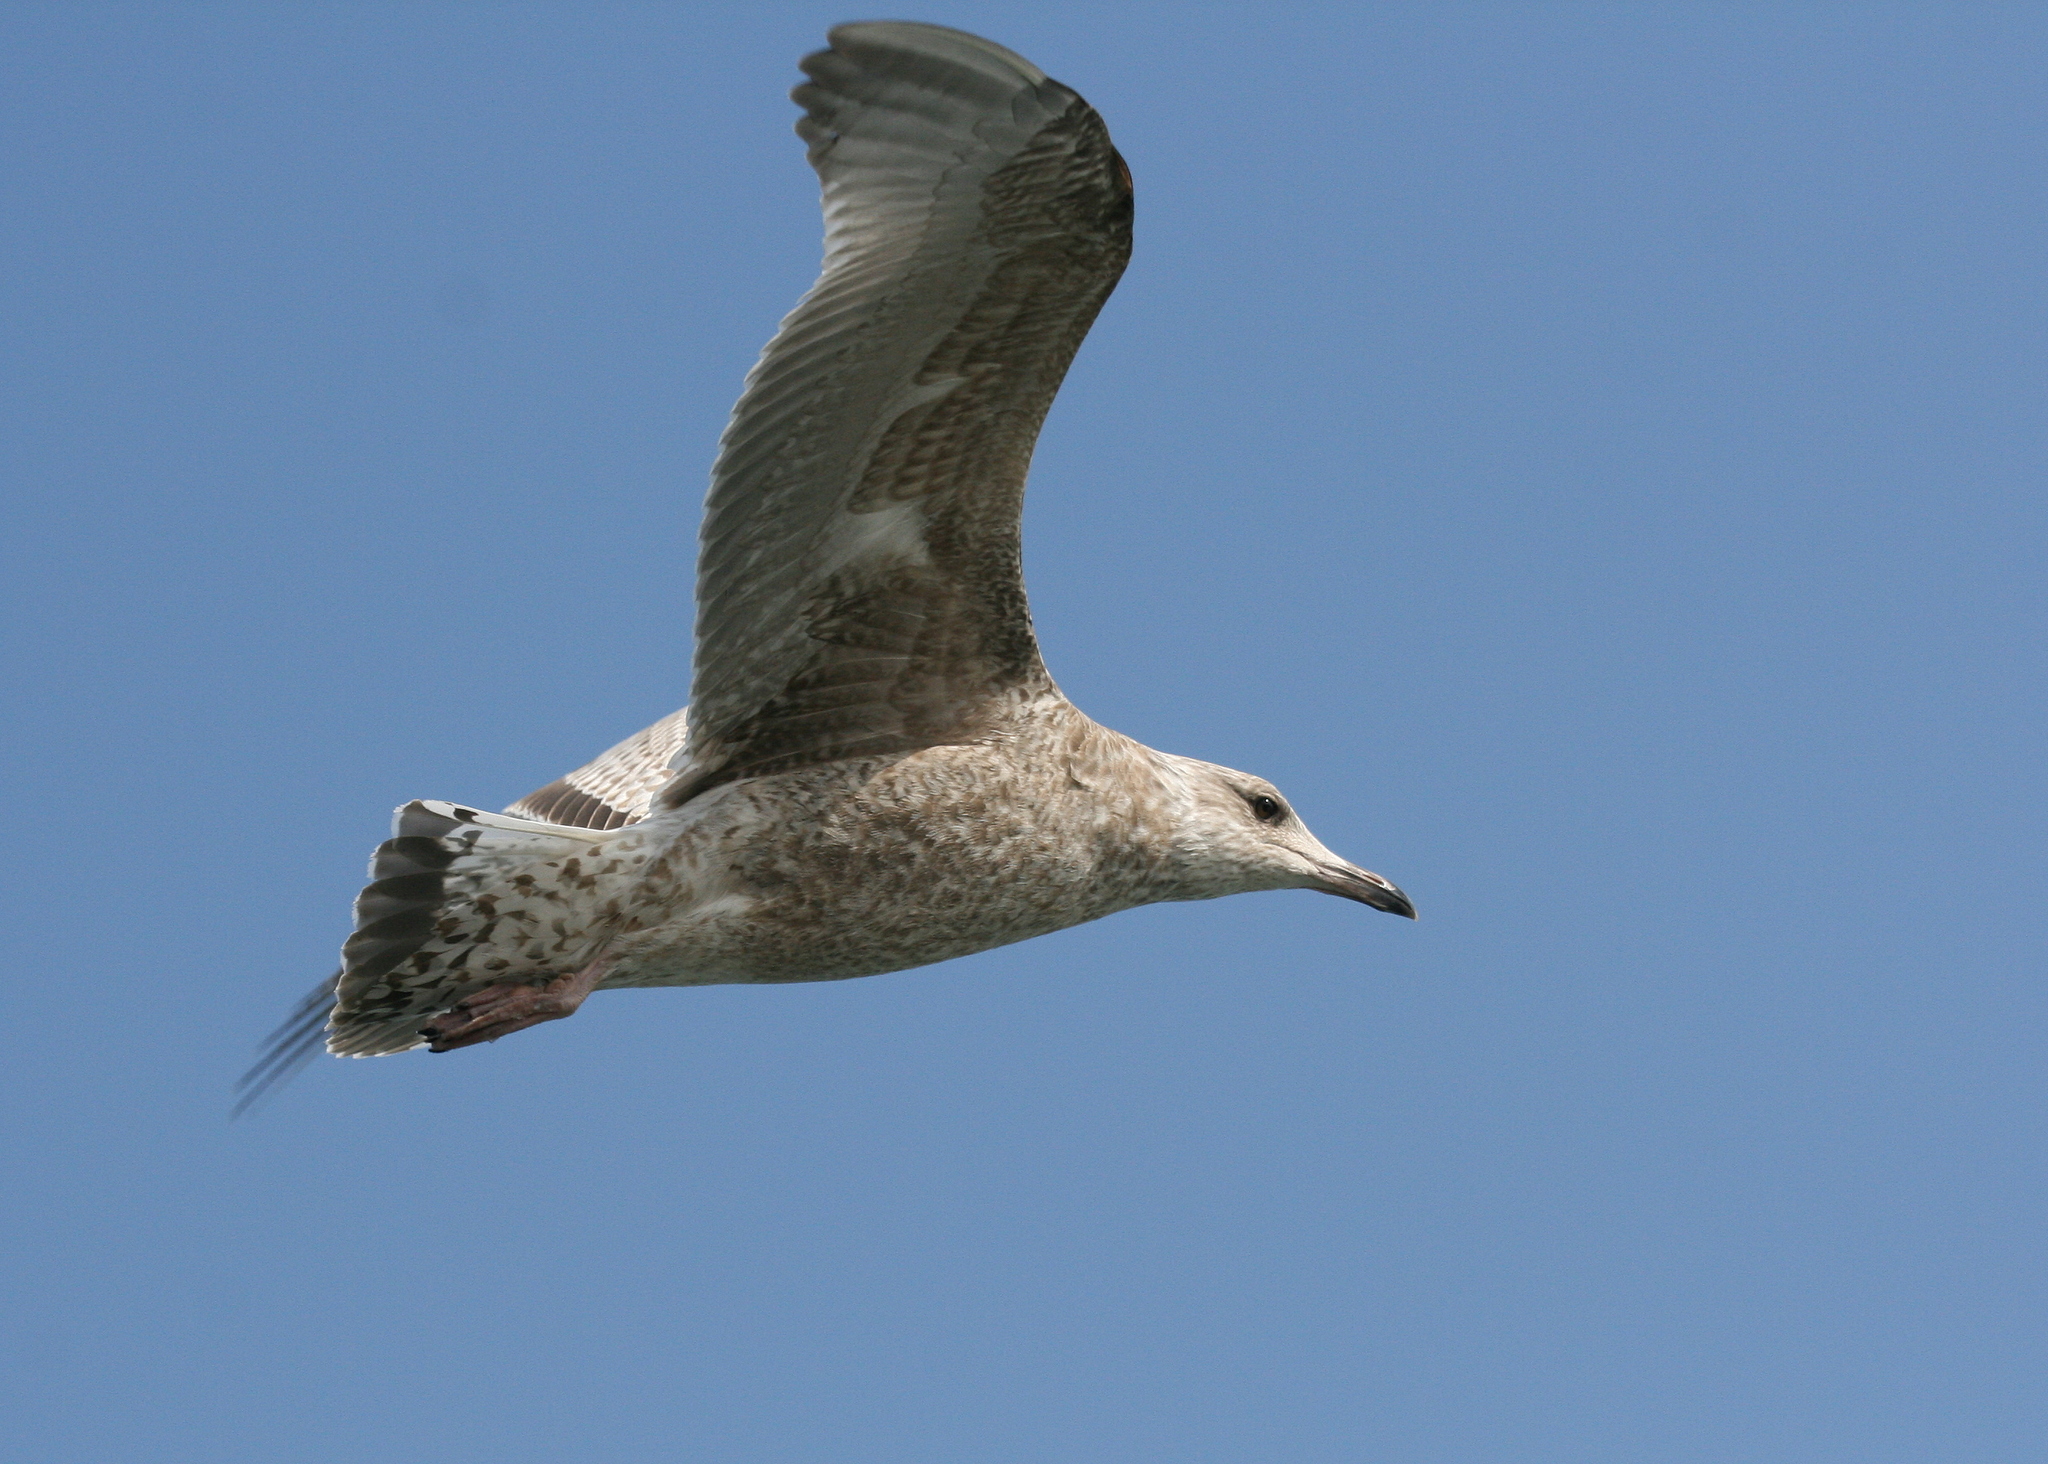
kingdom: Animalia
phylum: Chordata
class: Aves
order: Charadriiformes
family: Laridae
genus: Larus
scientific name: Larus argentatus
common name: Herring gull
